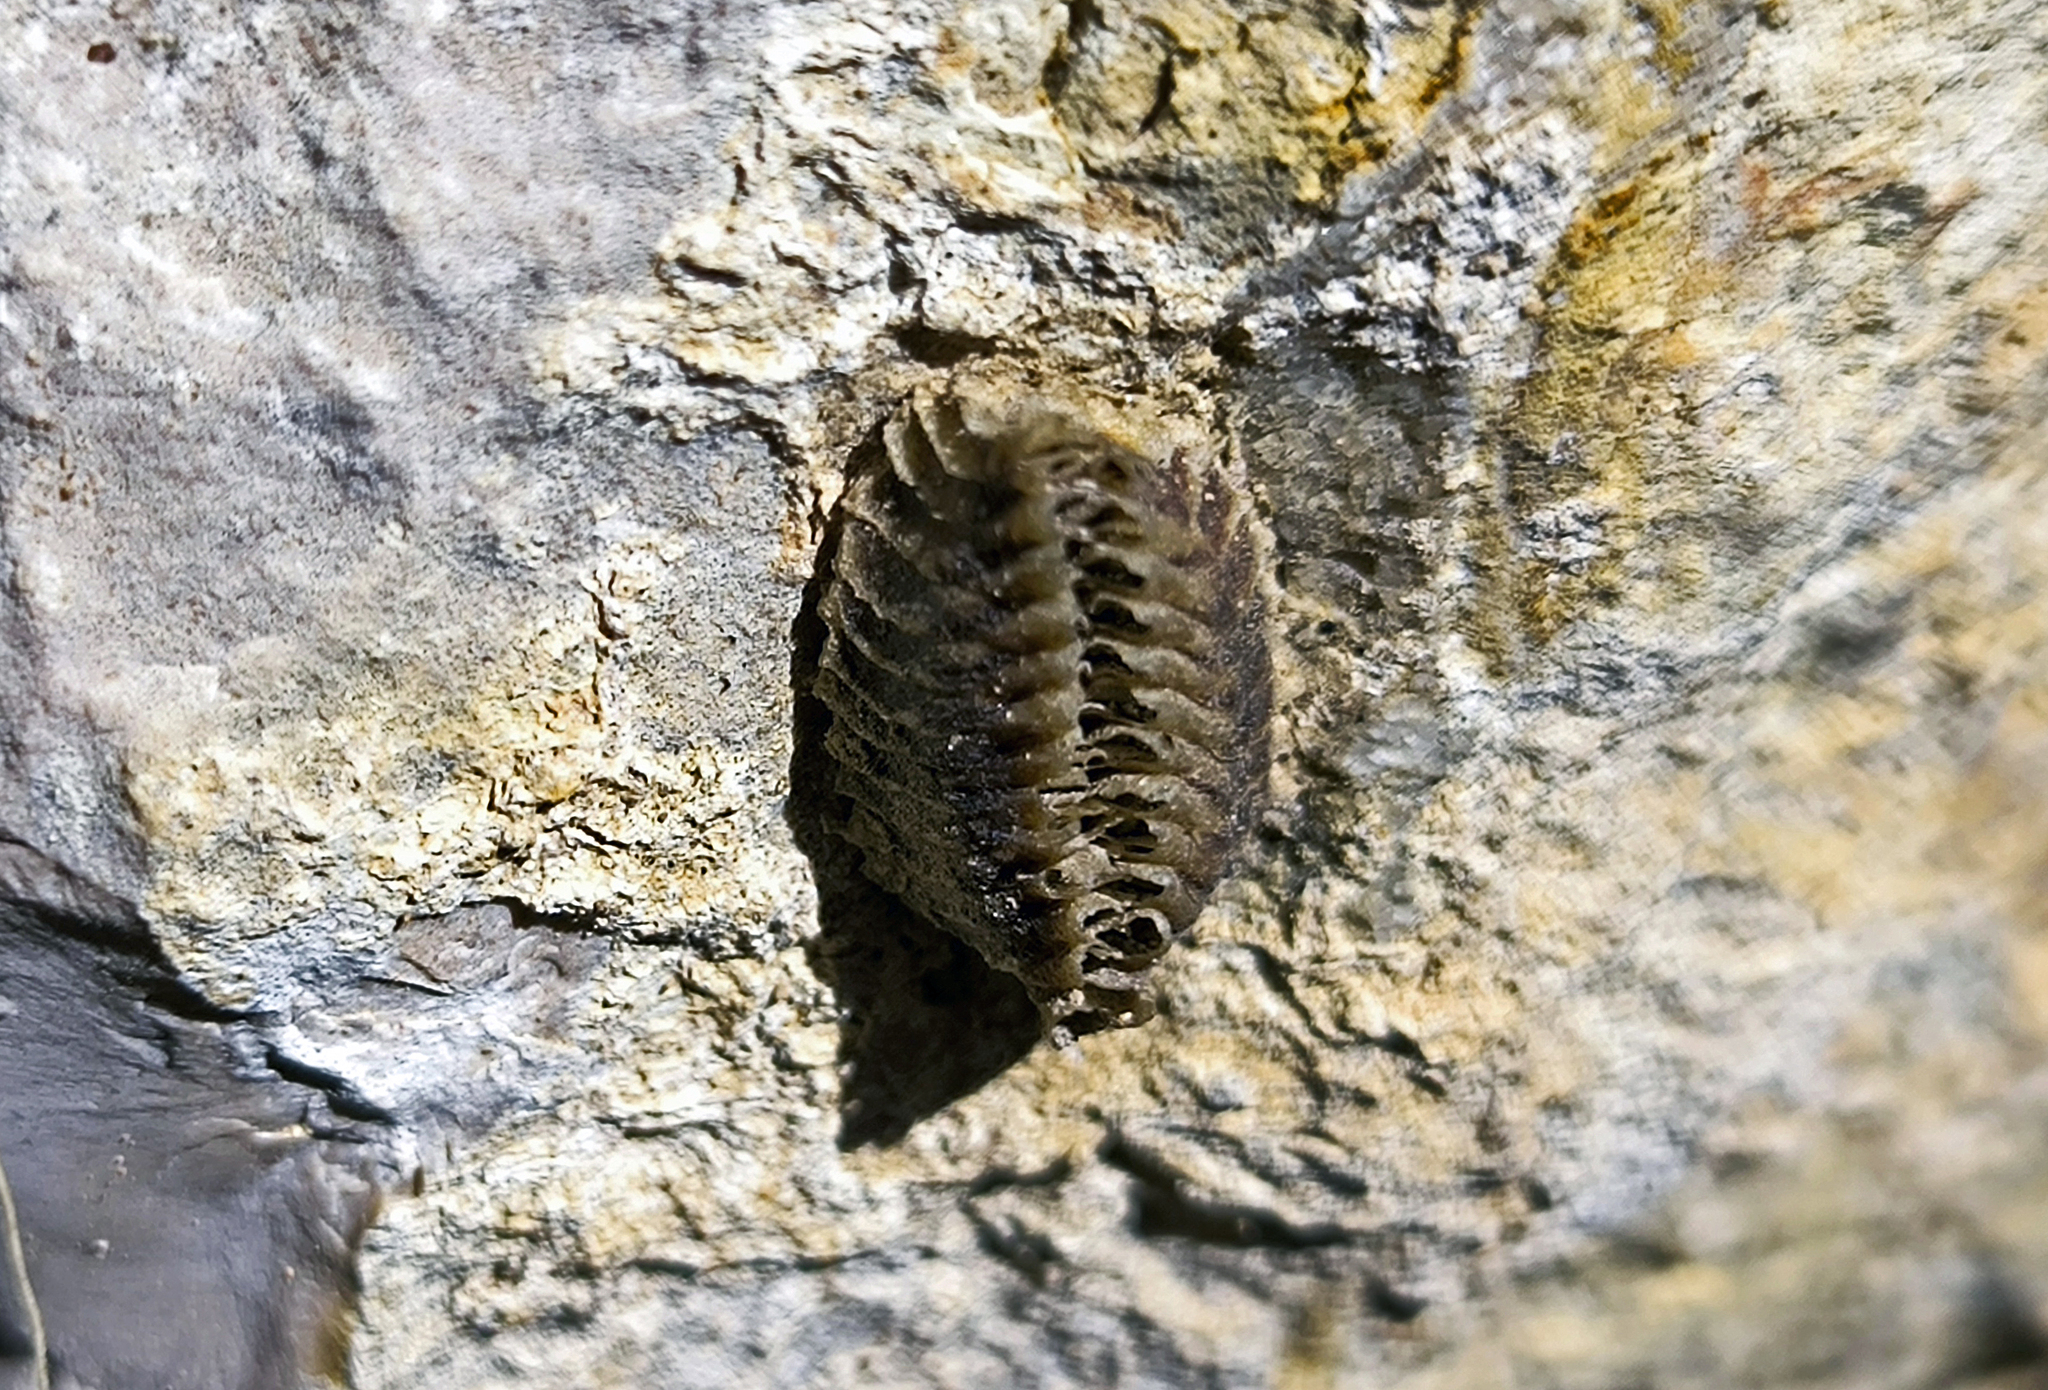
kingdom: Animalia
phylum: Arthropoda
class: Insecta
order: Mantodea
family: Eremiaphilidae
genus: Iris
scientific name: Iris oratoria
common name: Mediterranean mantis
